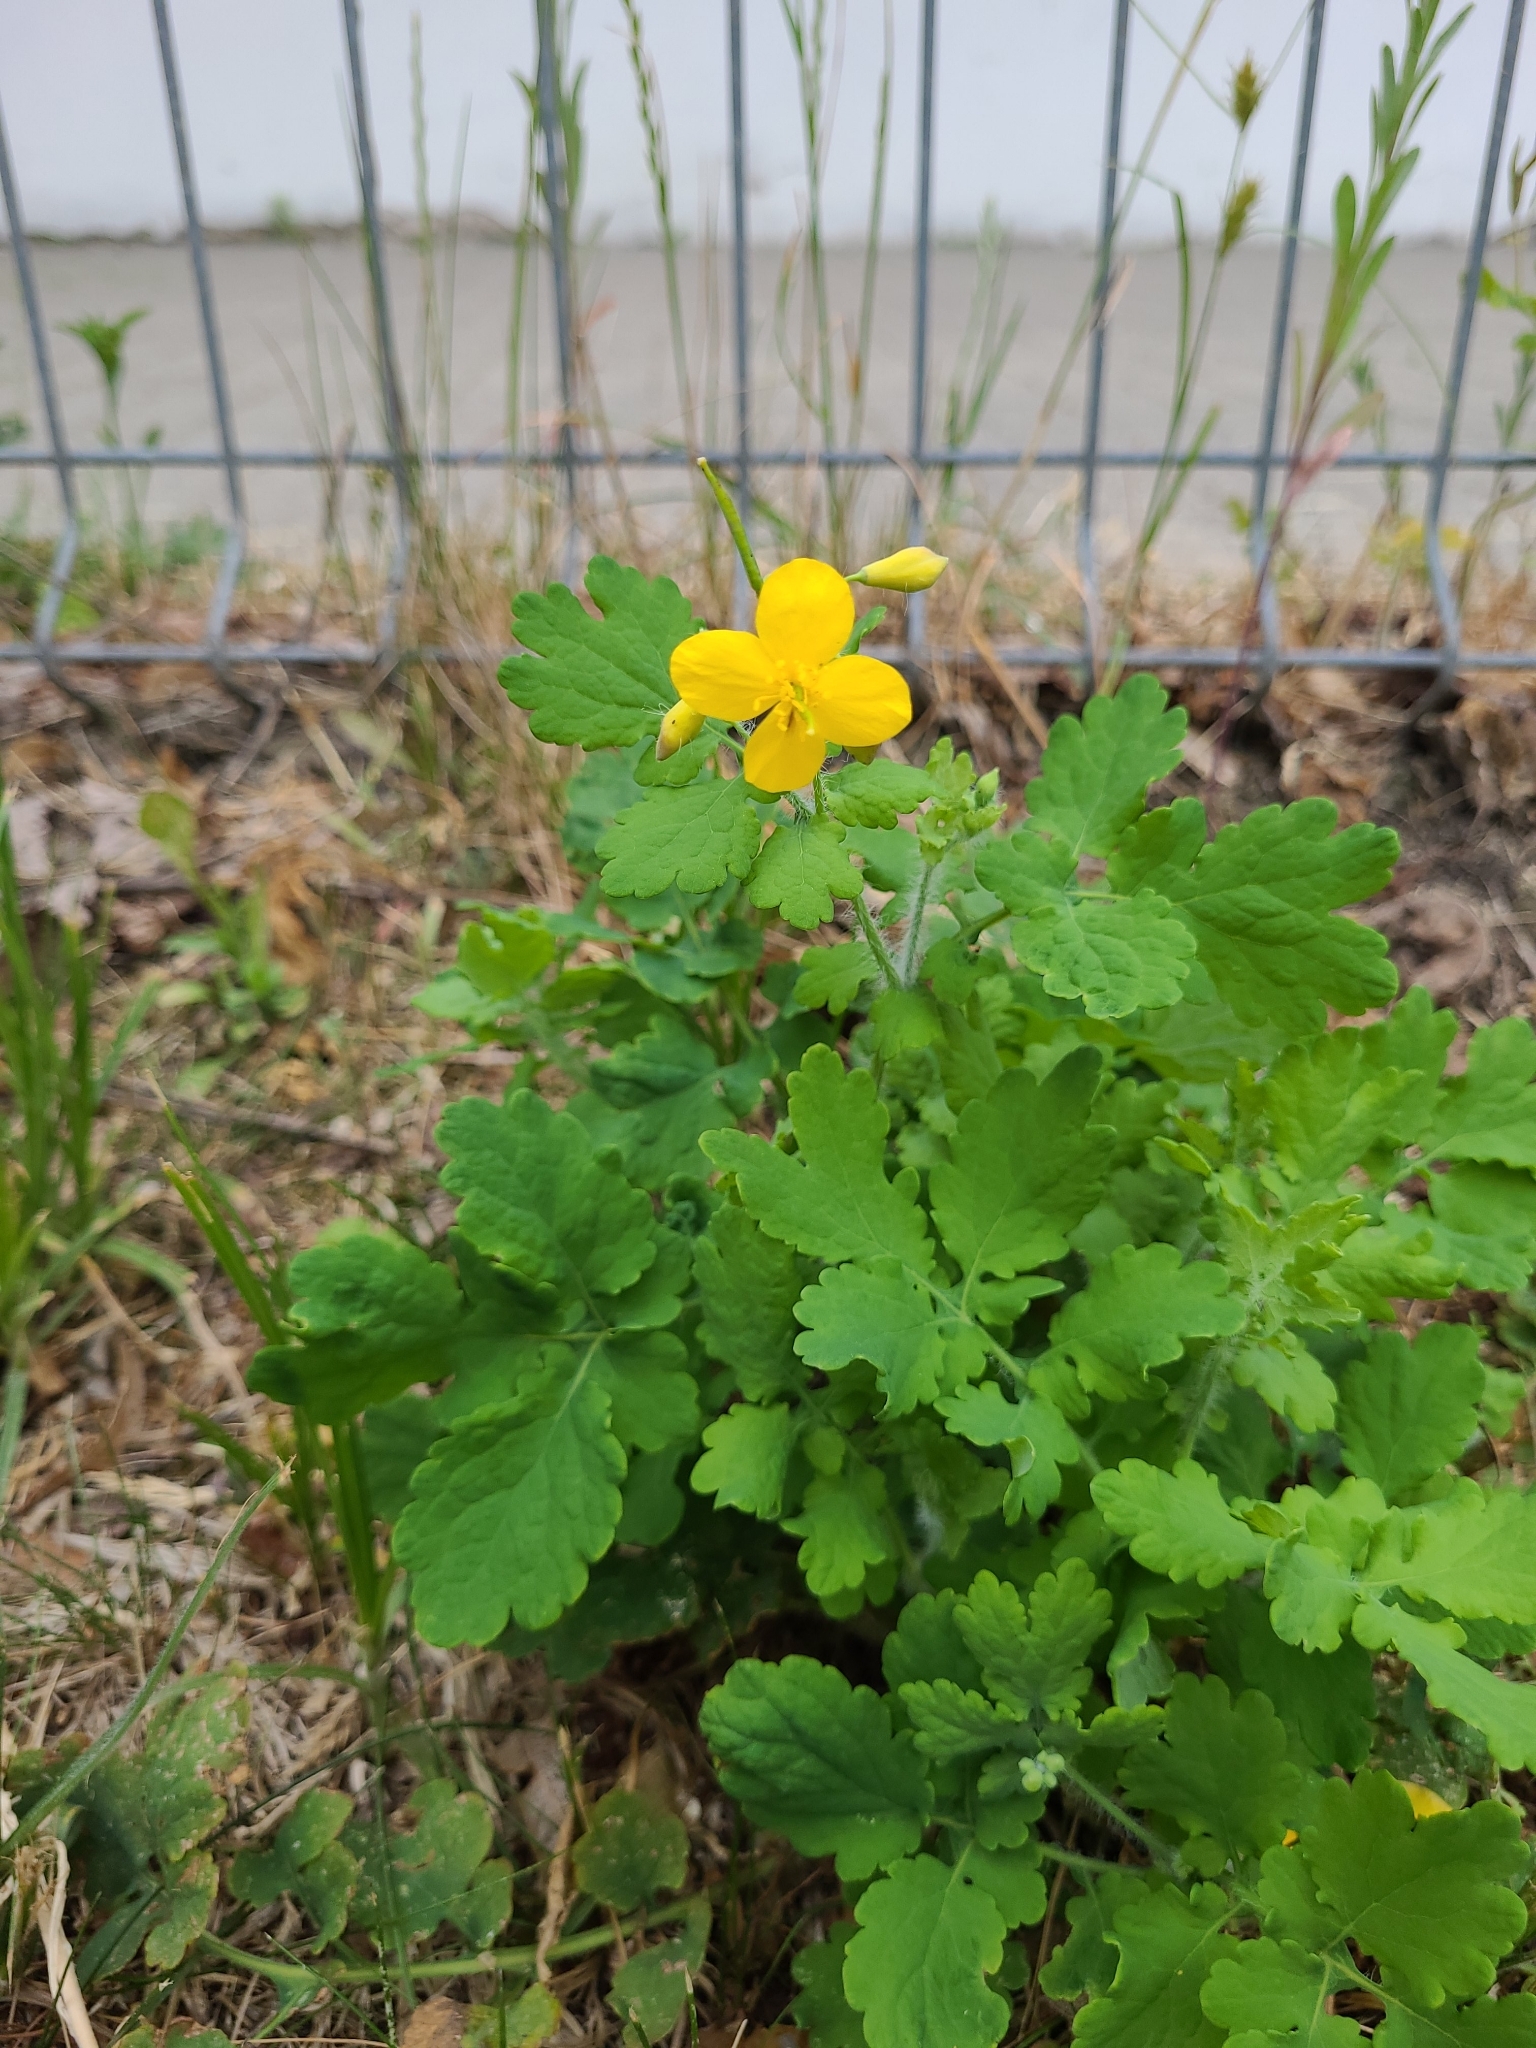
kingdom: Plantae
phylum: Tracheophyta
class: Magnoliopsida
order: Ranunculales
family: Papaveraceae
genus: Chelidonium
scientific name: Chelidonium majus
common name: Greater celandine
